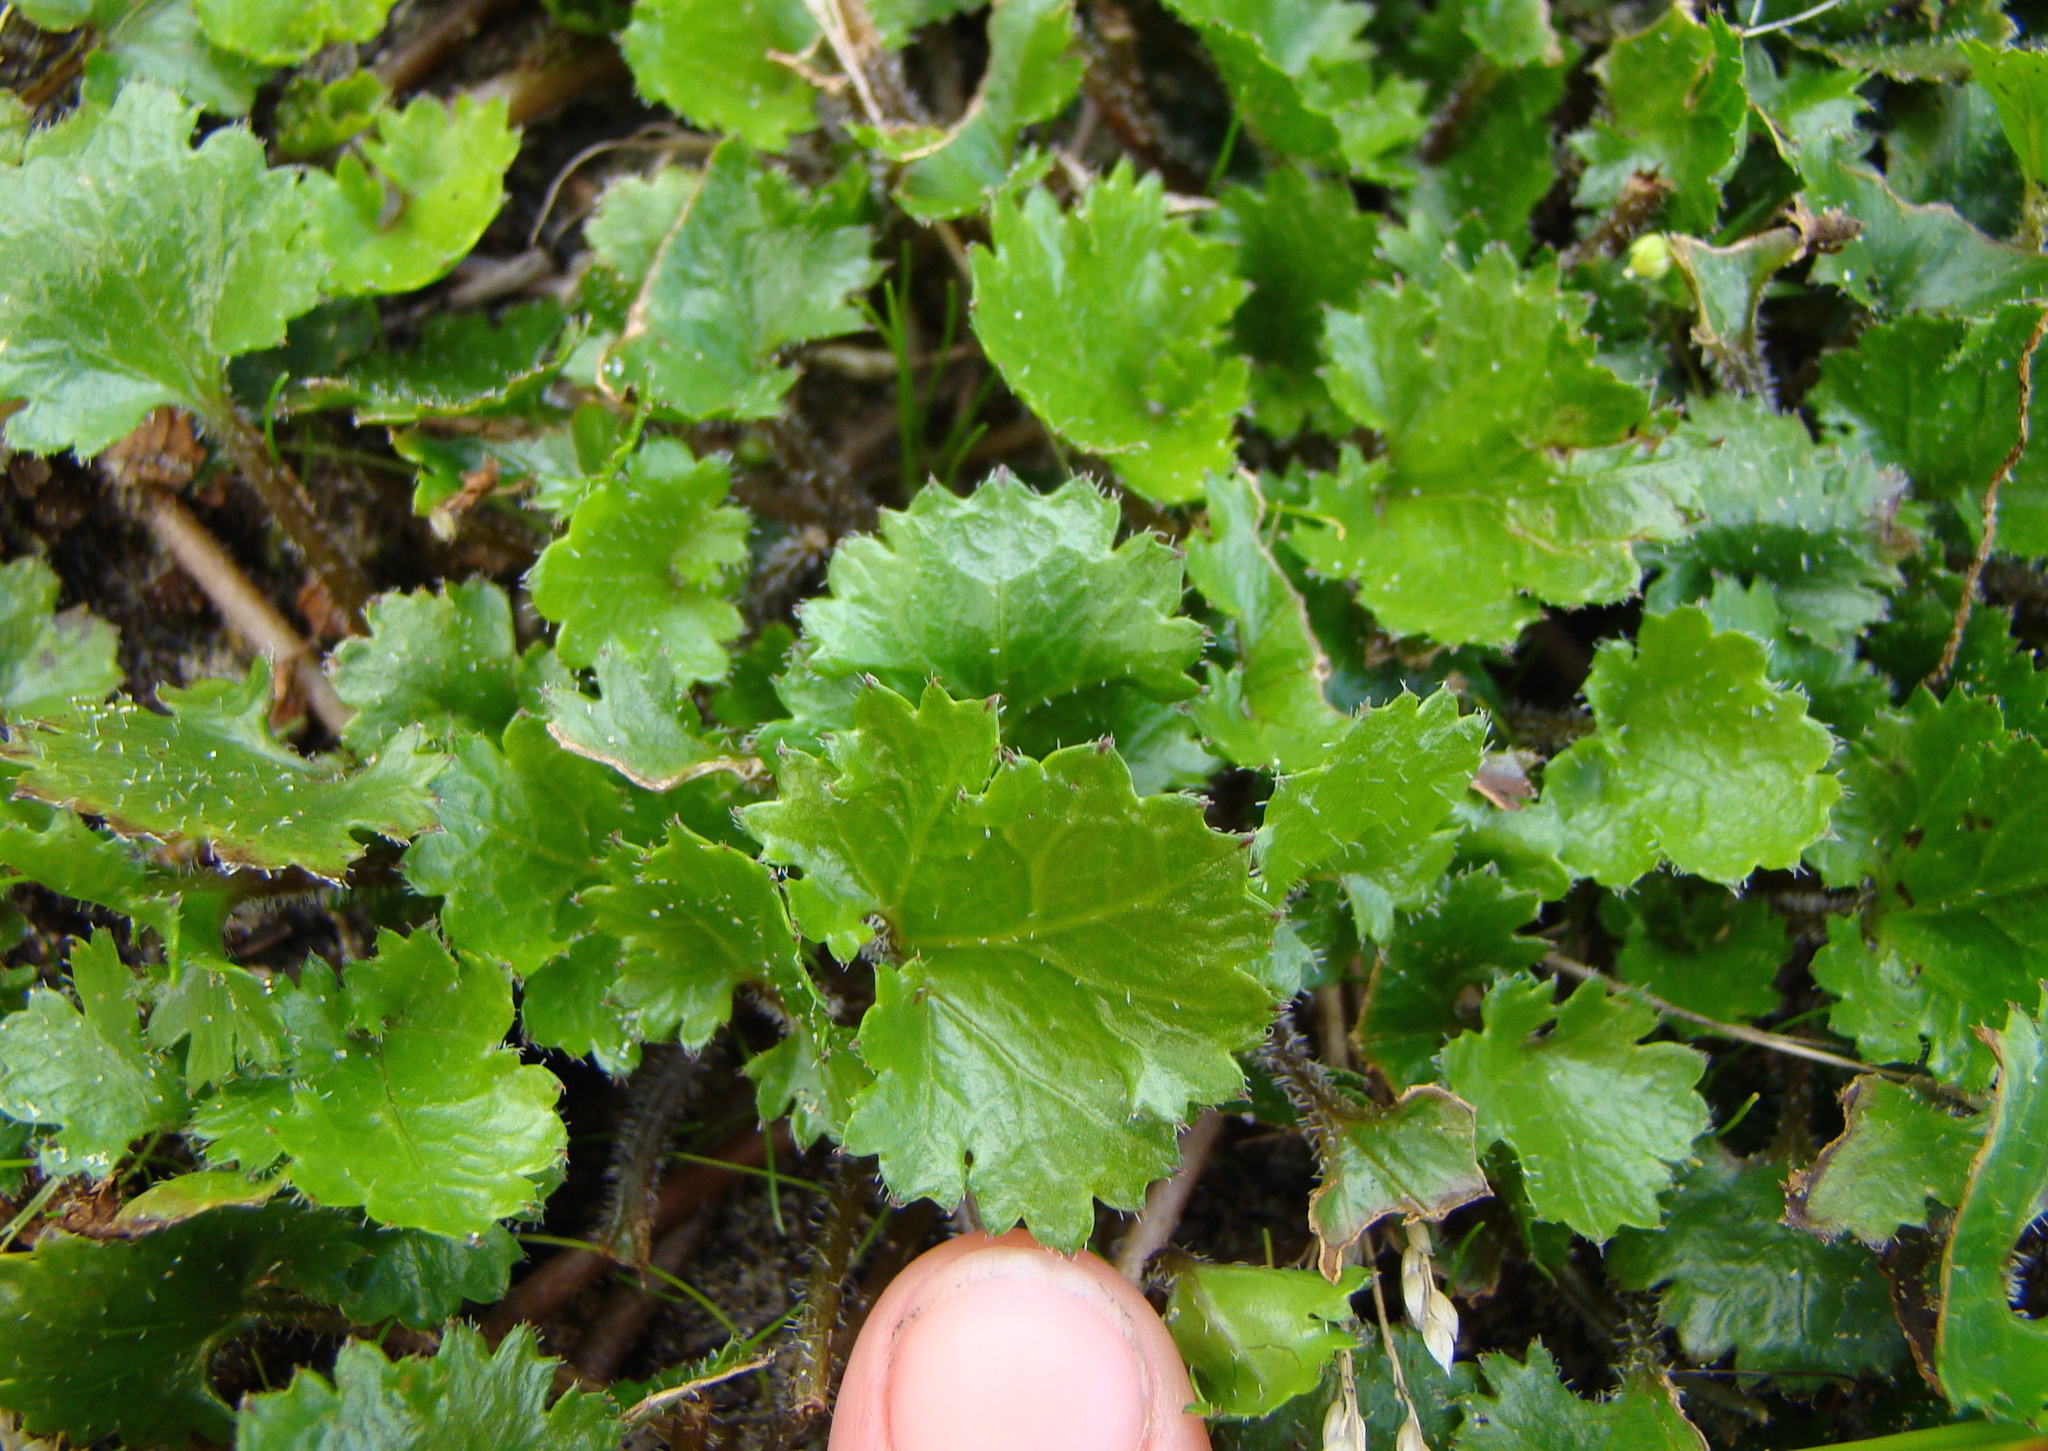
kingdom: Plantae
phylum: Tracheophyta
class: Magnoliopsida
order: Gunnerales
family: Gunneraceae
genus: Gunnera
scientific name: Gunnera monoica
